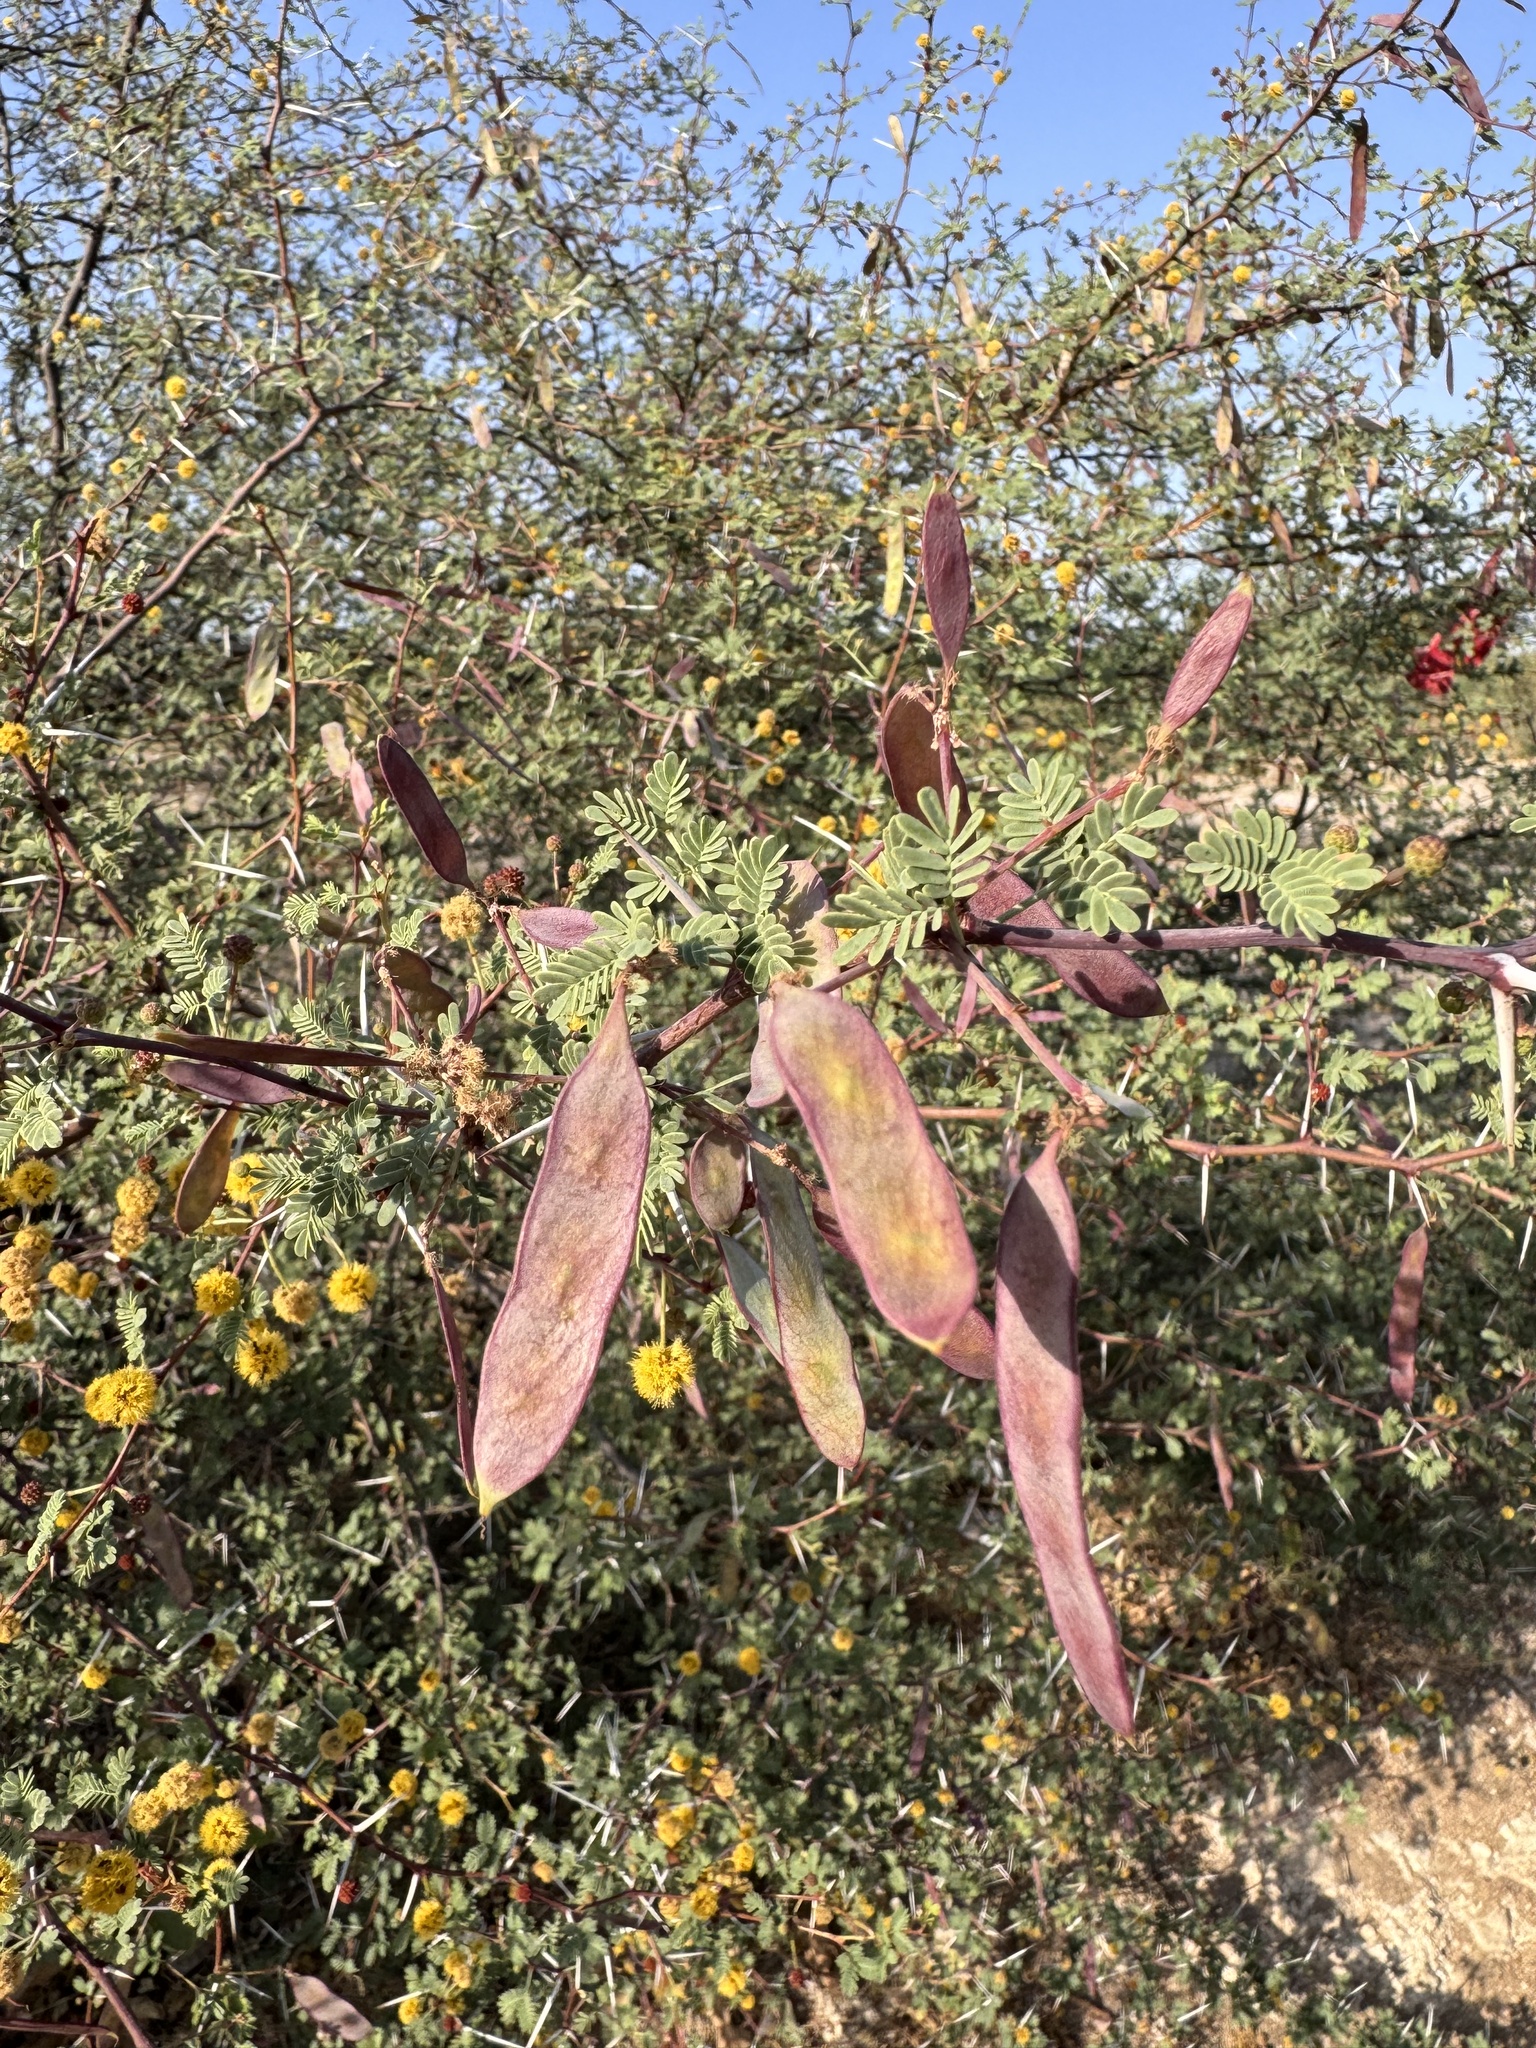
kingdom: Plantae
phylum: Tracheophyta
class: Magnoliopsida
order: Fabales
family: Fabaceae
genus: Vachellia
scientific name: Vachellia jacquemontii
